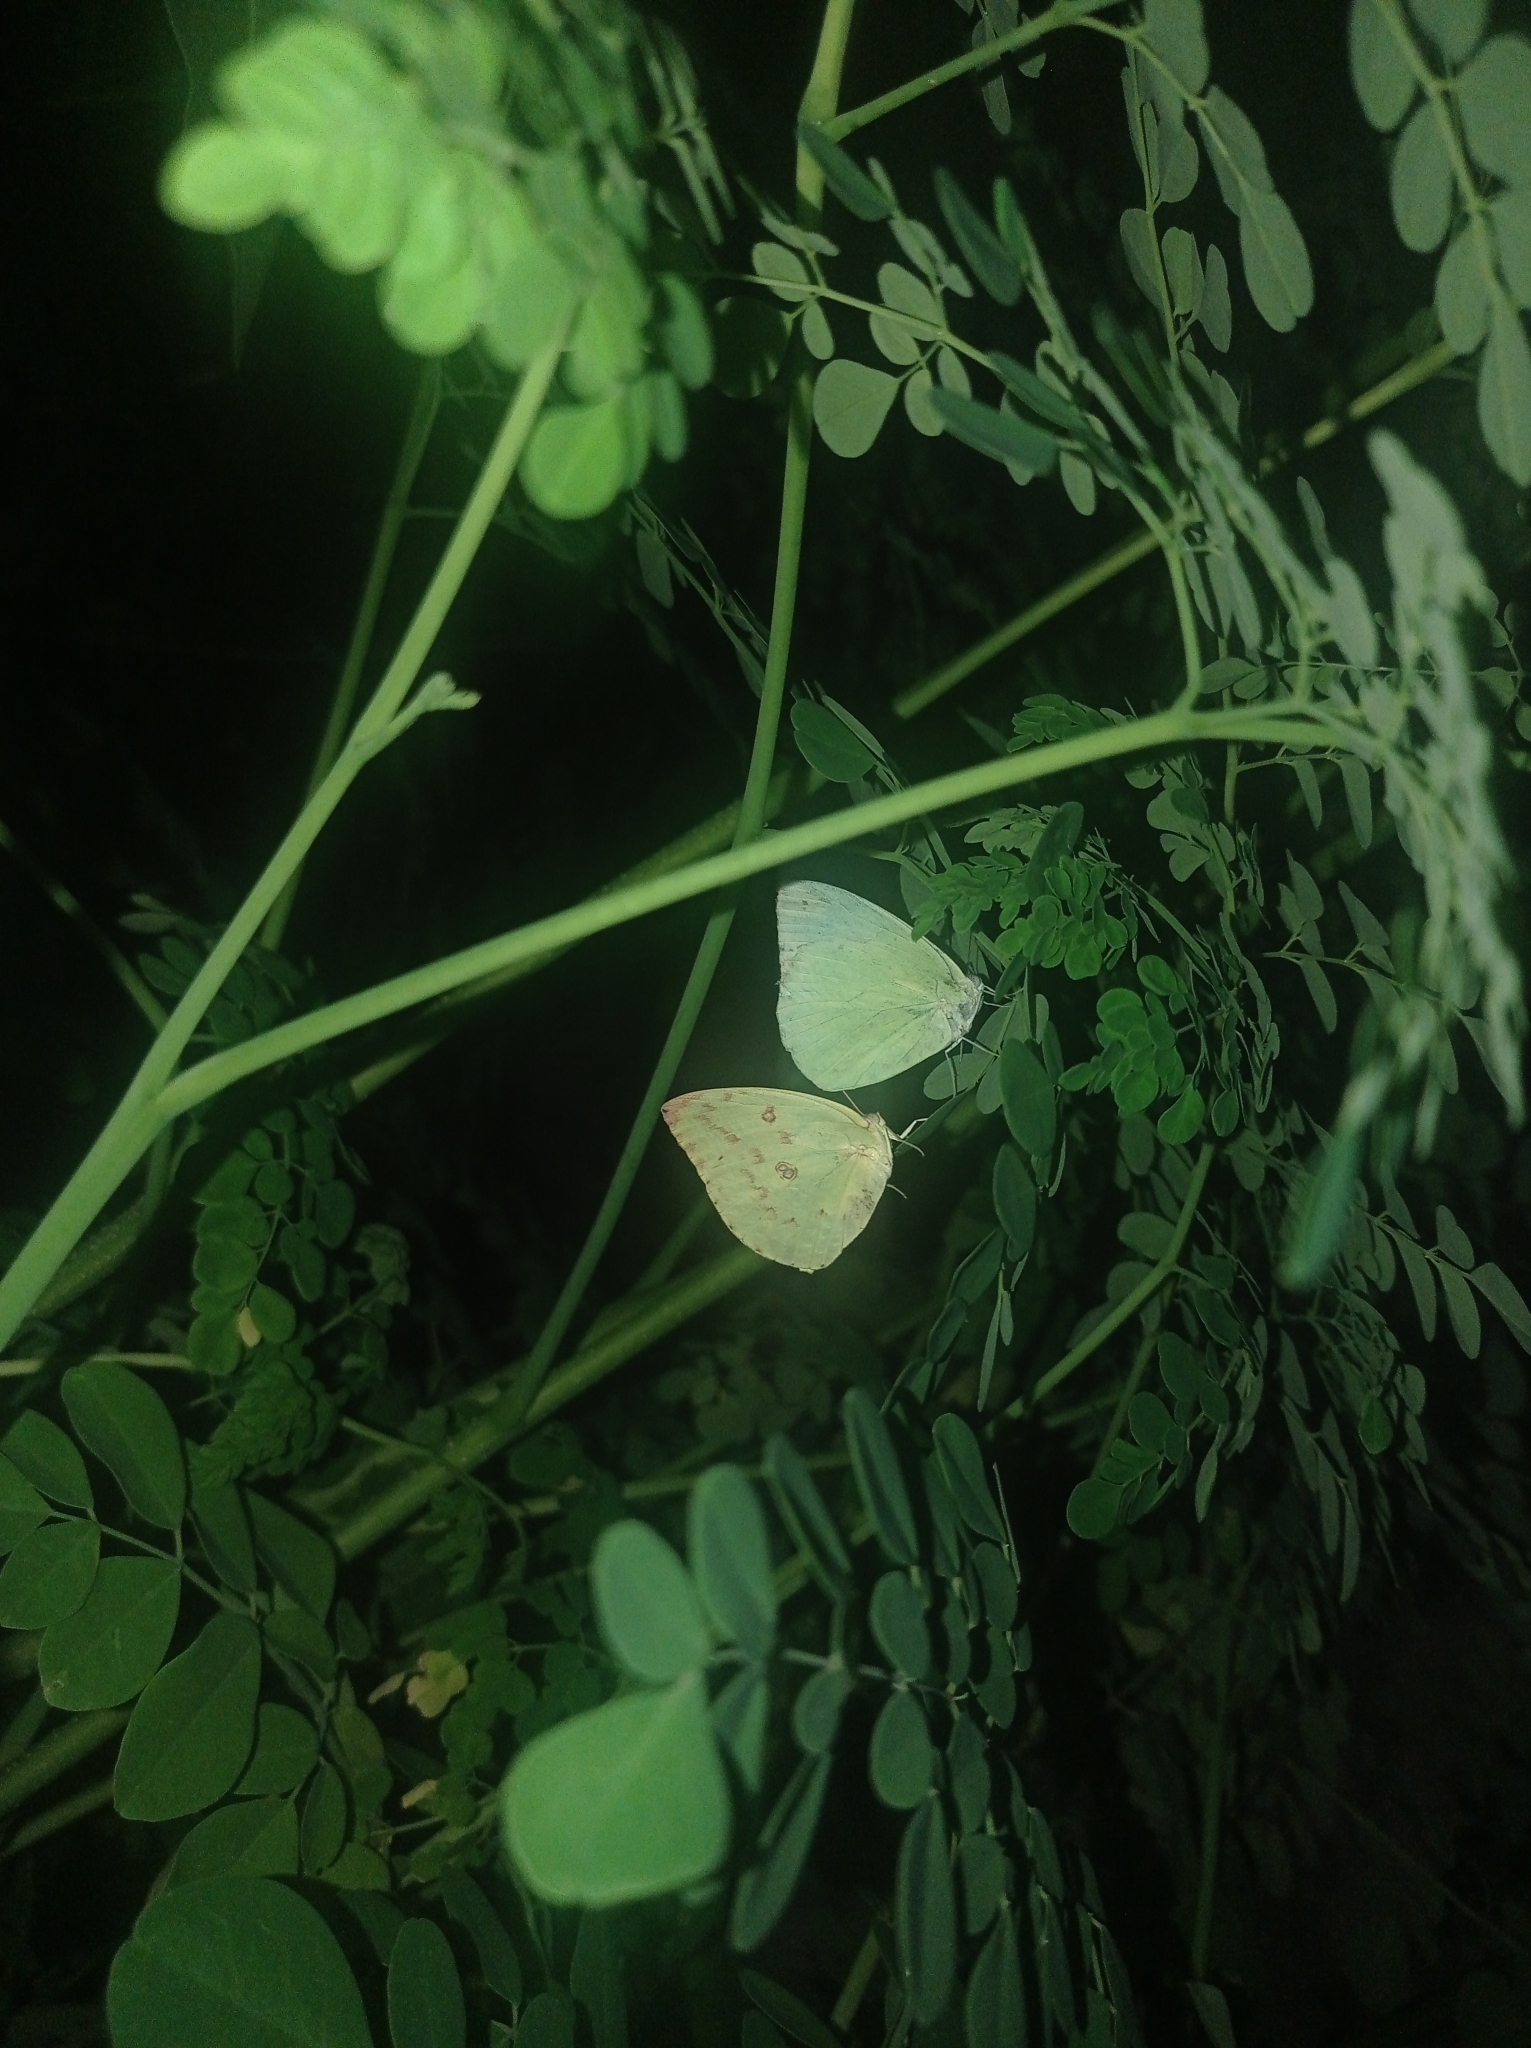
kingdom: Animalia
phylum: Arthropoda
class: Insecta
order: Lepidoptera
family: Pieridae
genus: Catopsilia
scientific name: Catopsilia pomona
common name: Common emigrant
